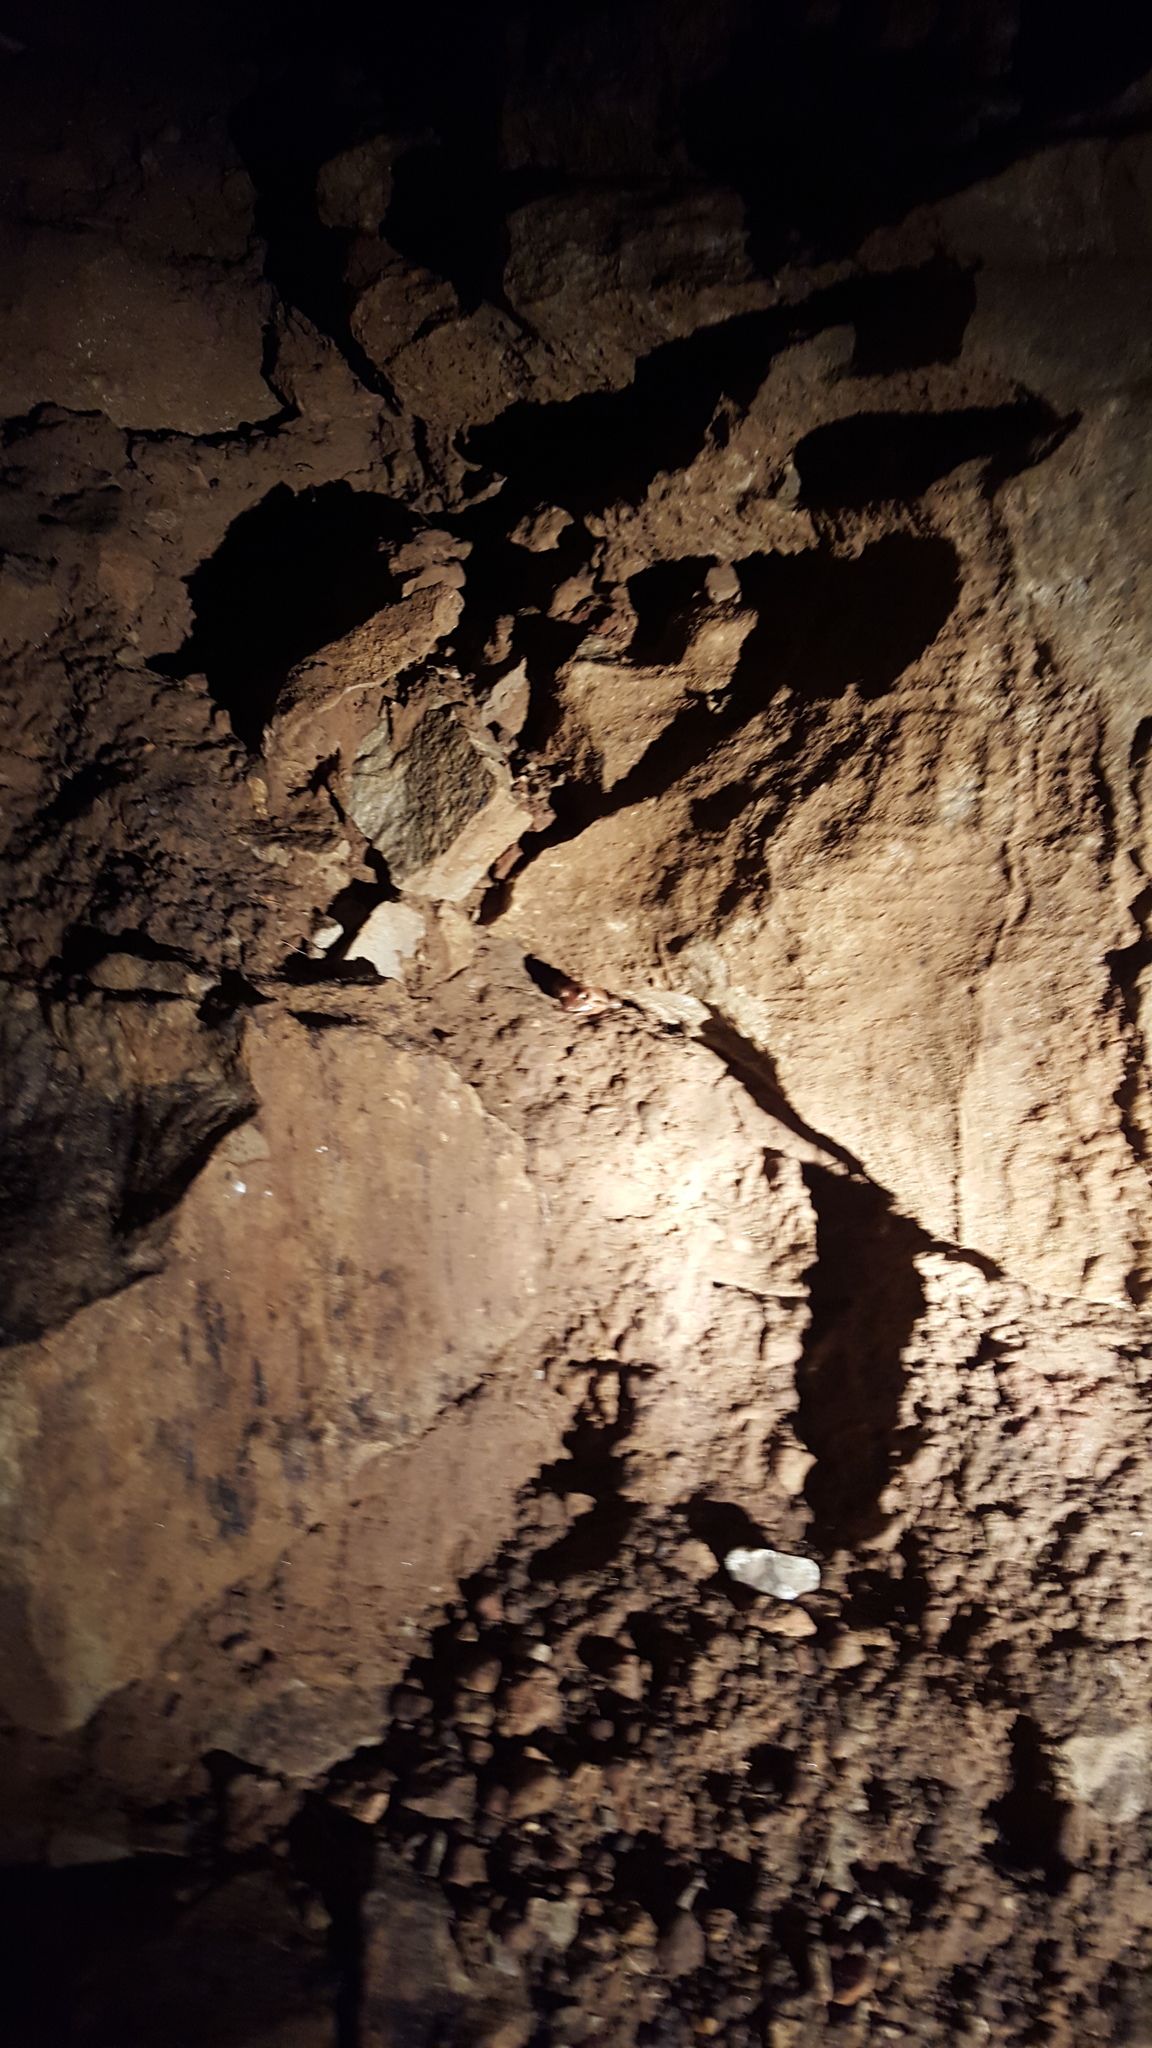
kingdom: Animalia
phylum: Chordata
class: Amphibia
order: Anura
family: Ranidae
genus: Lithobates
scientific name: Lithobates sylvaticus
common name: Wood frog
